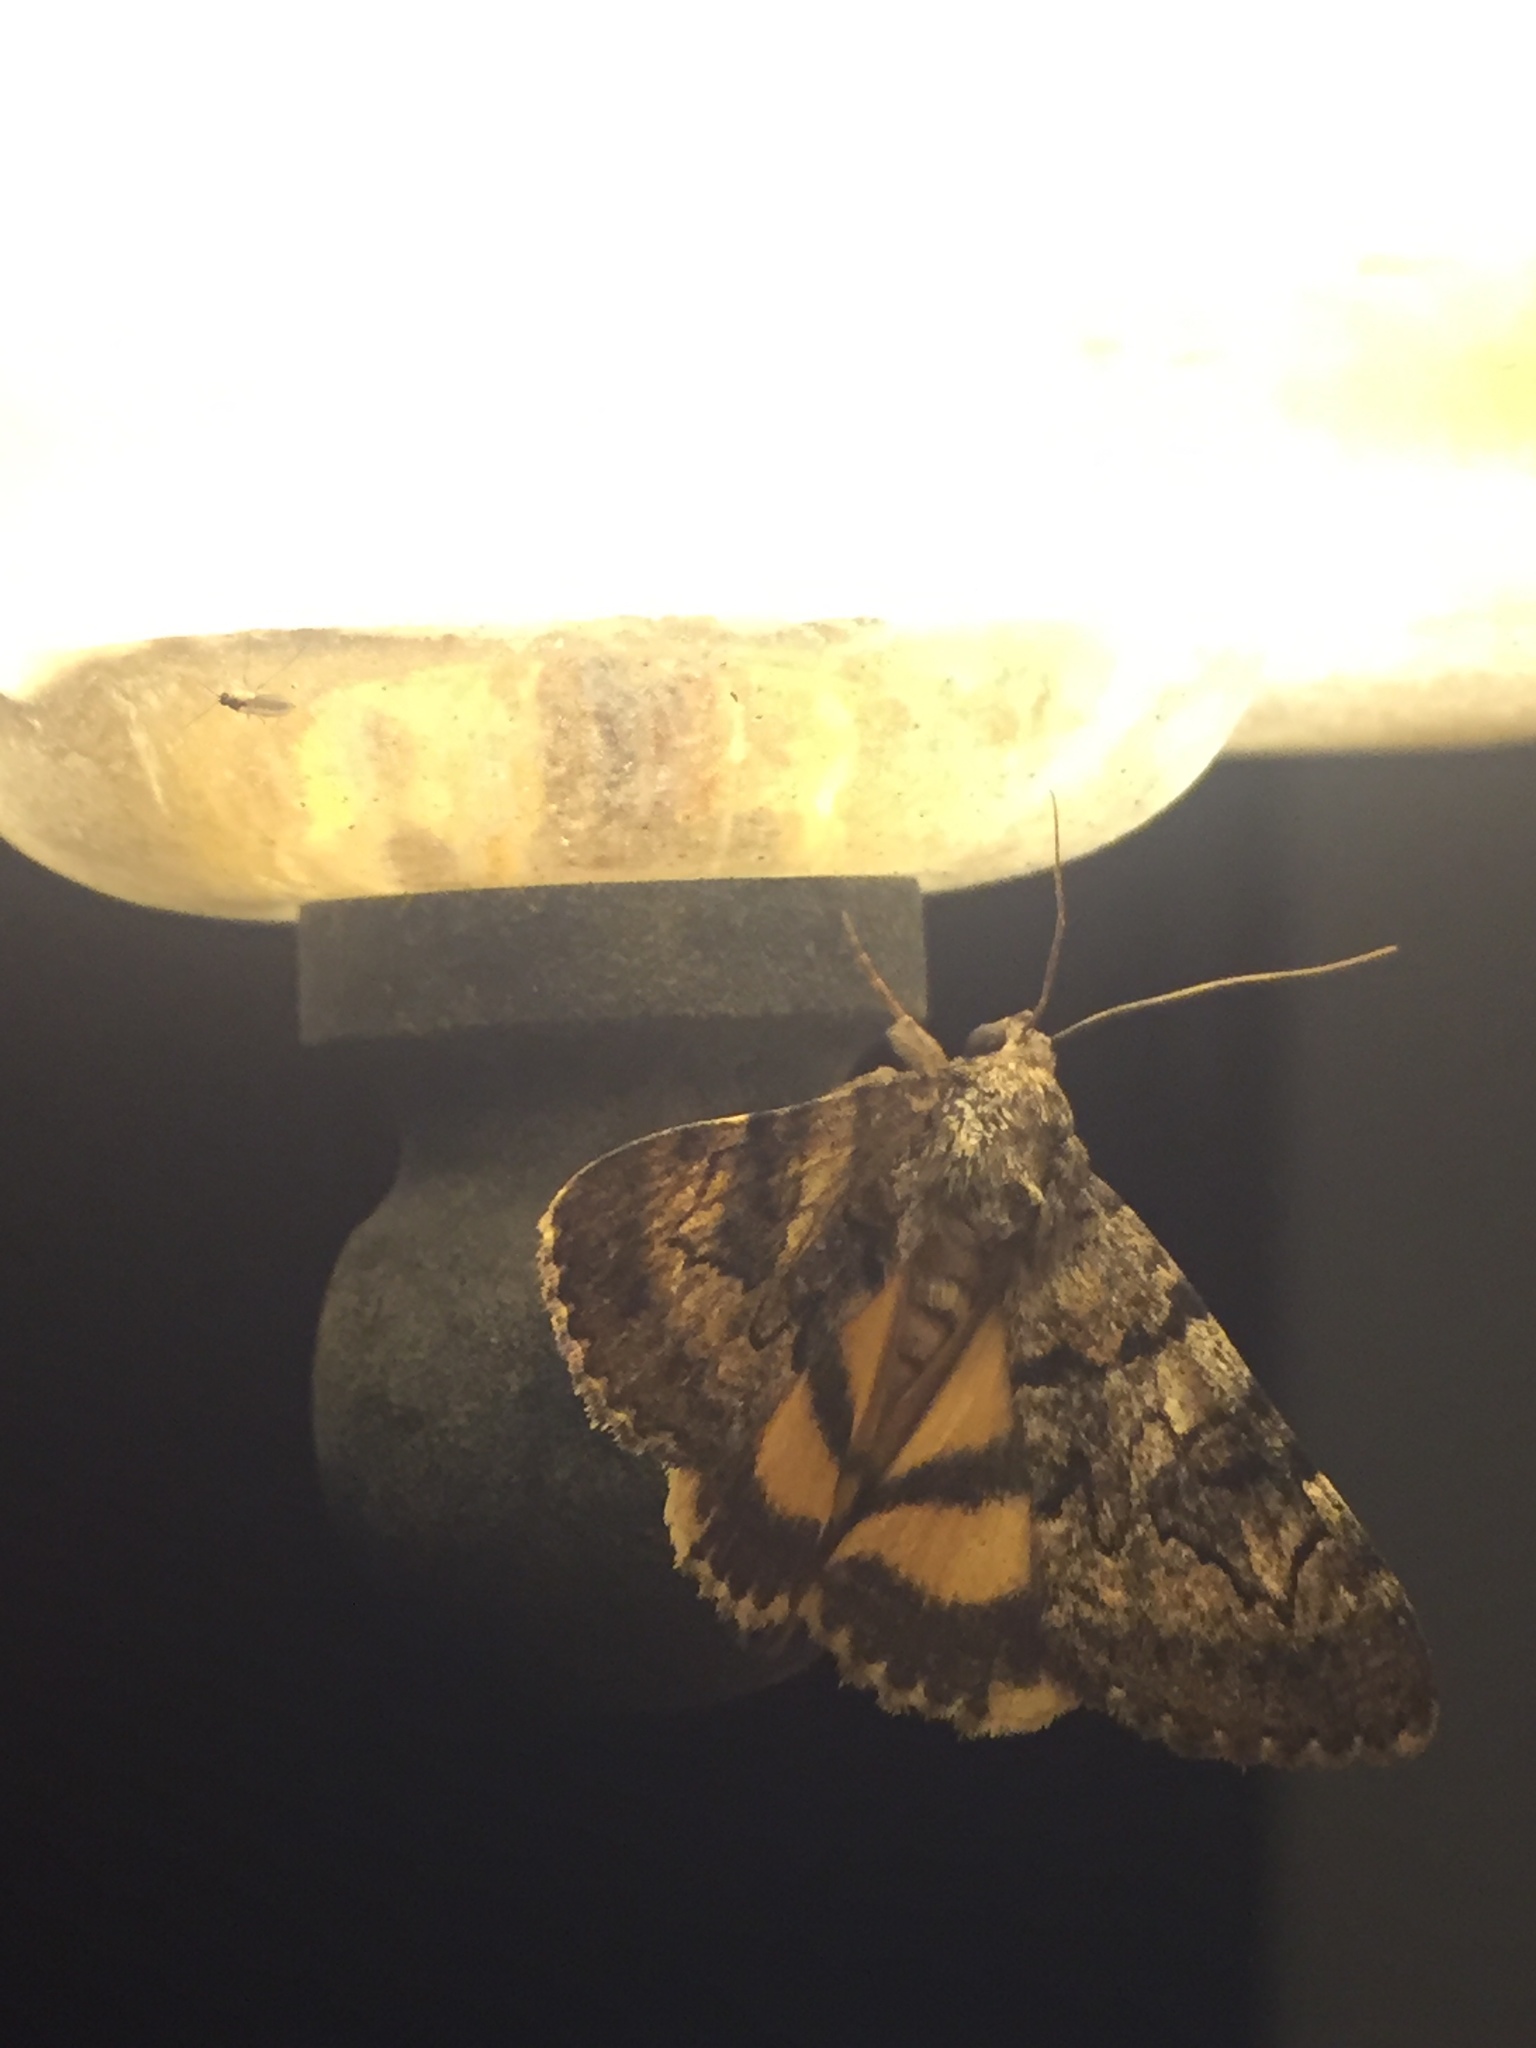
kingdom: Animalia
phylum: Arthropoda
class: Insecta
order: Lepidoptera
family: Erebidae
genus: Catocala
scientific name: Catocala nymphagoga
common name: Oak yellow underwing
